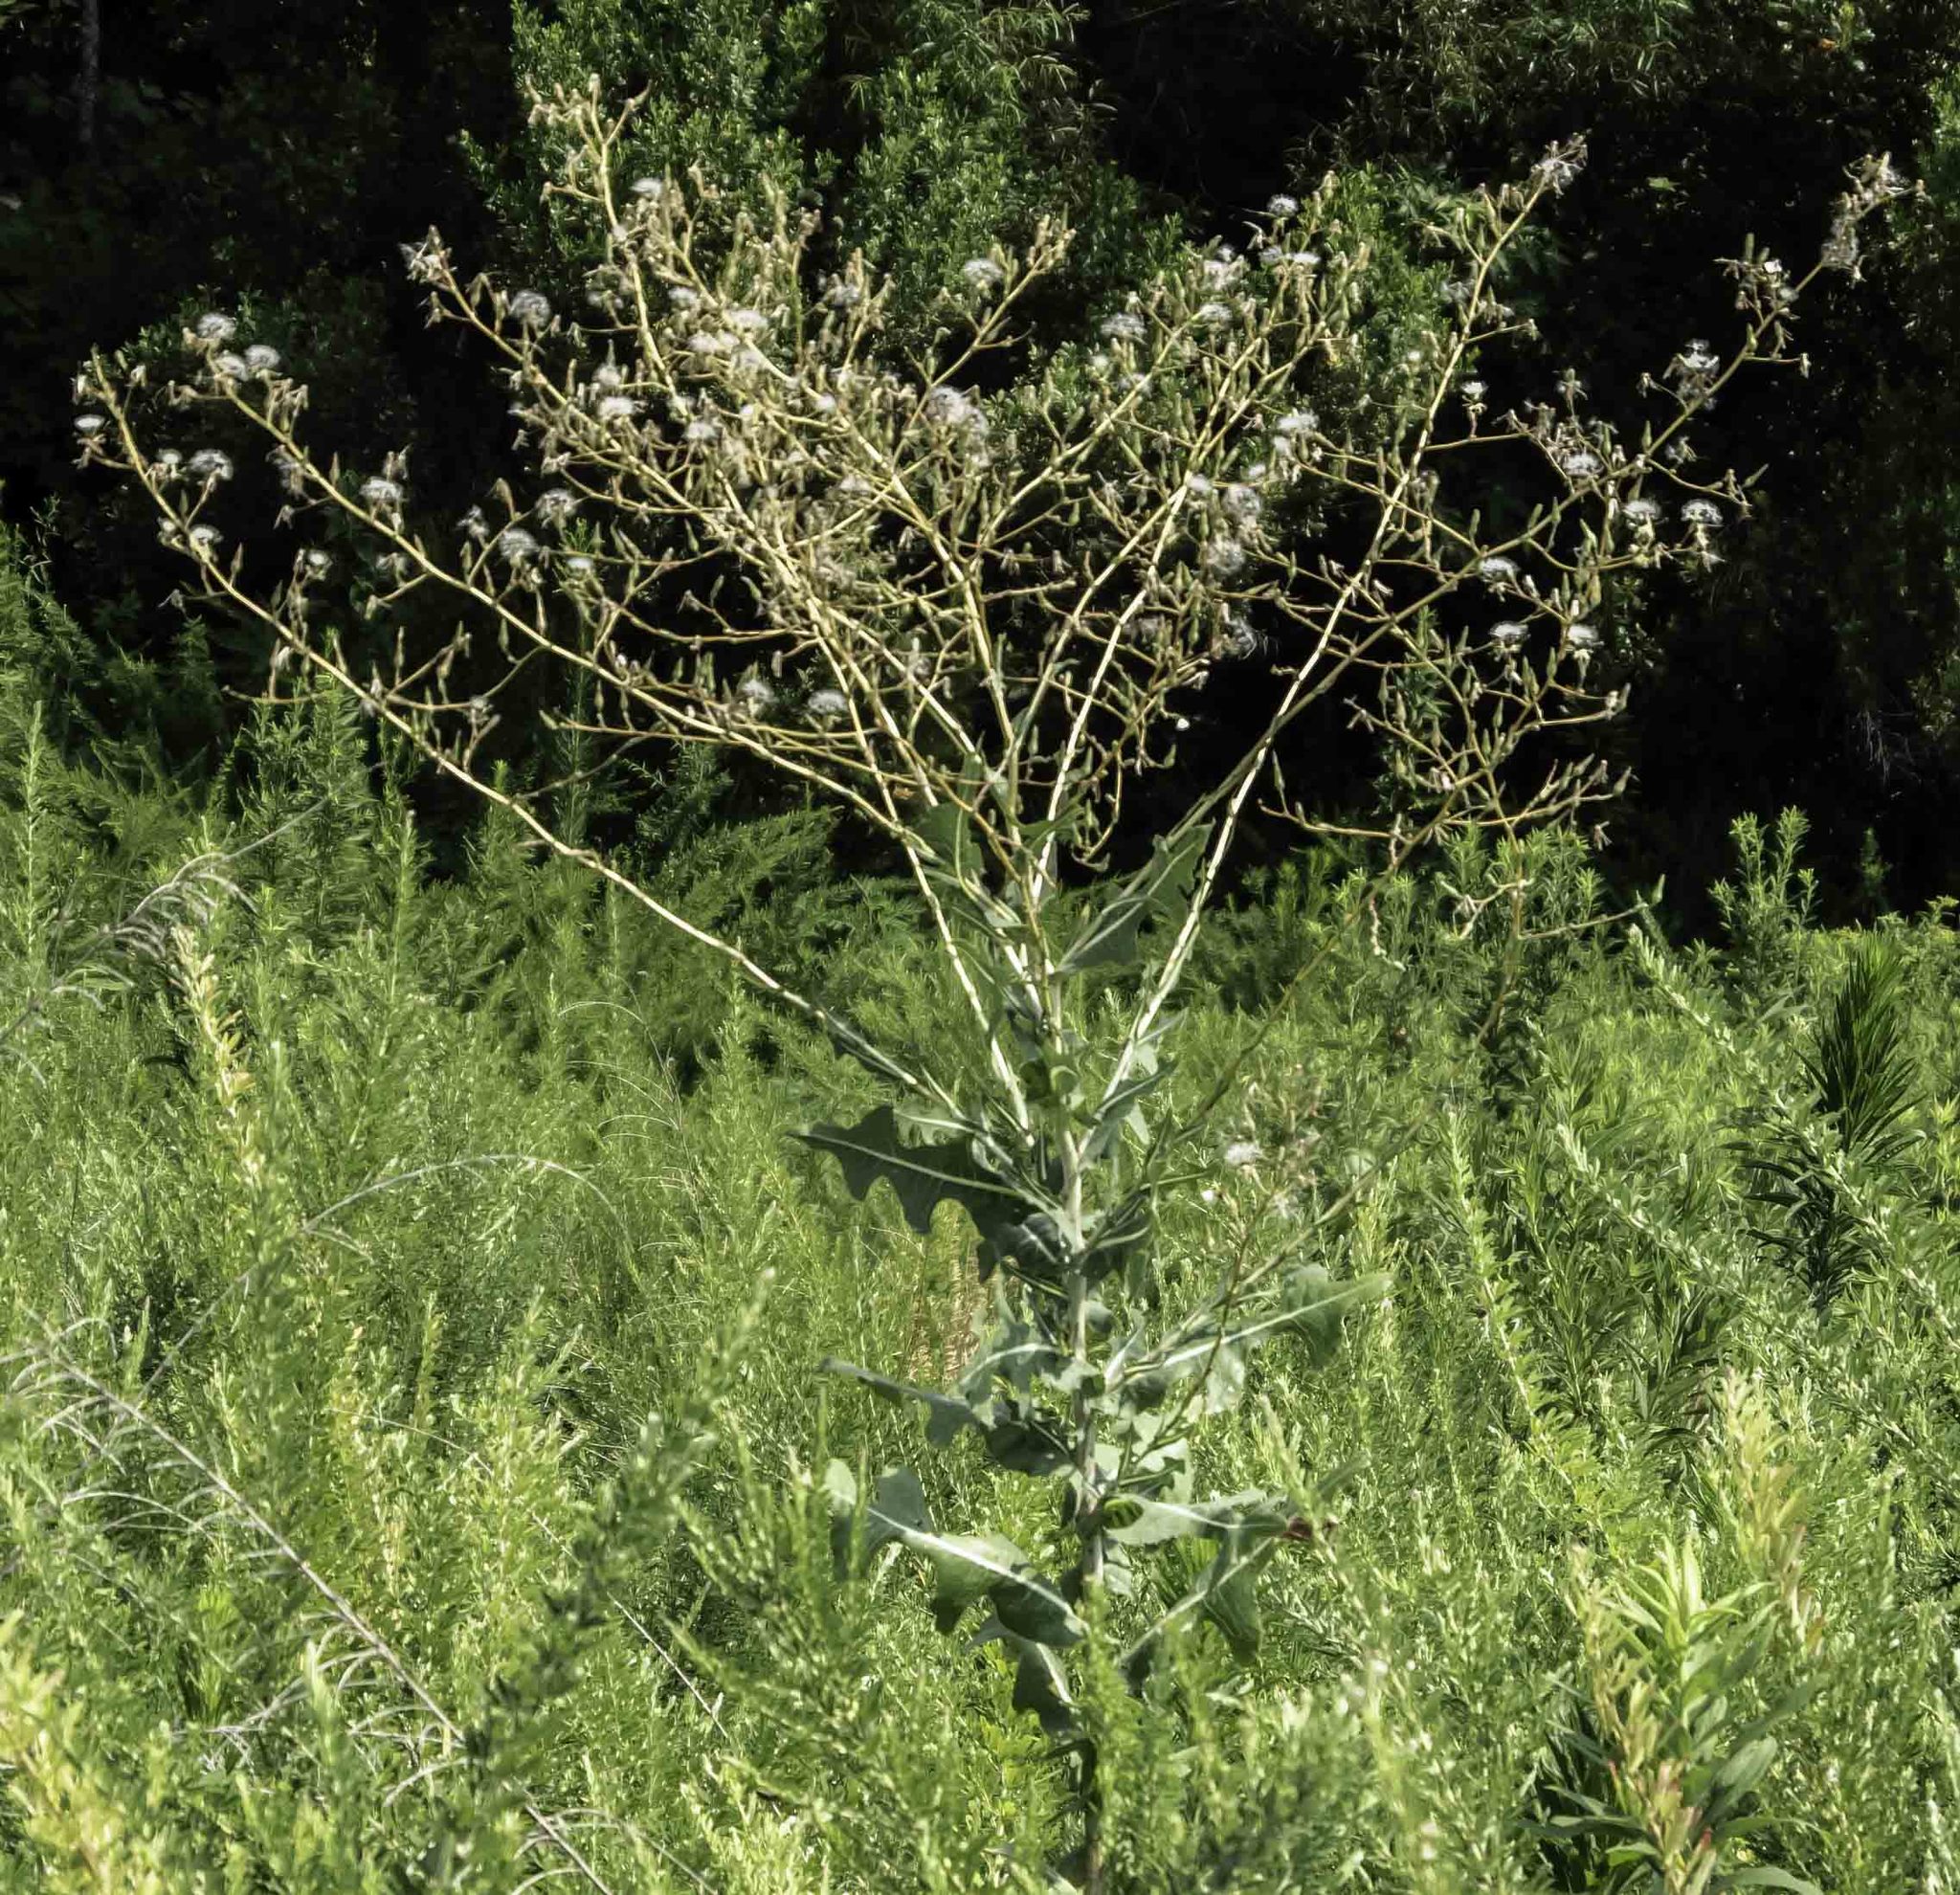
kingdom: Plantae
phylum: Tracheophyta
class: Magnoliopsida
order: Asterales
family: Asteraceae
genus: Lactuca
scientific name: Lactuca serriola
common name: Prickly lettuce
